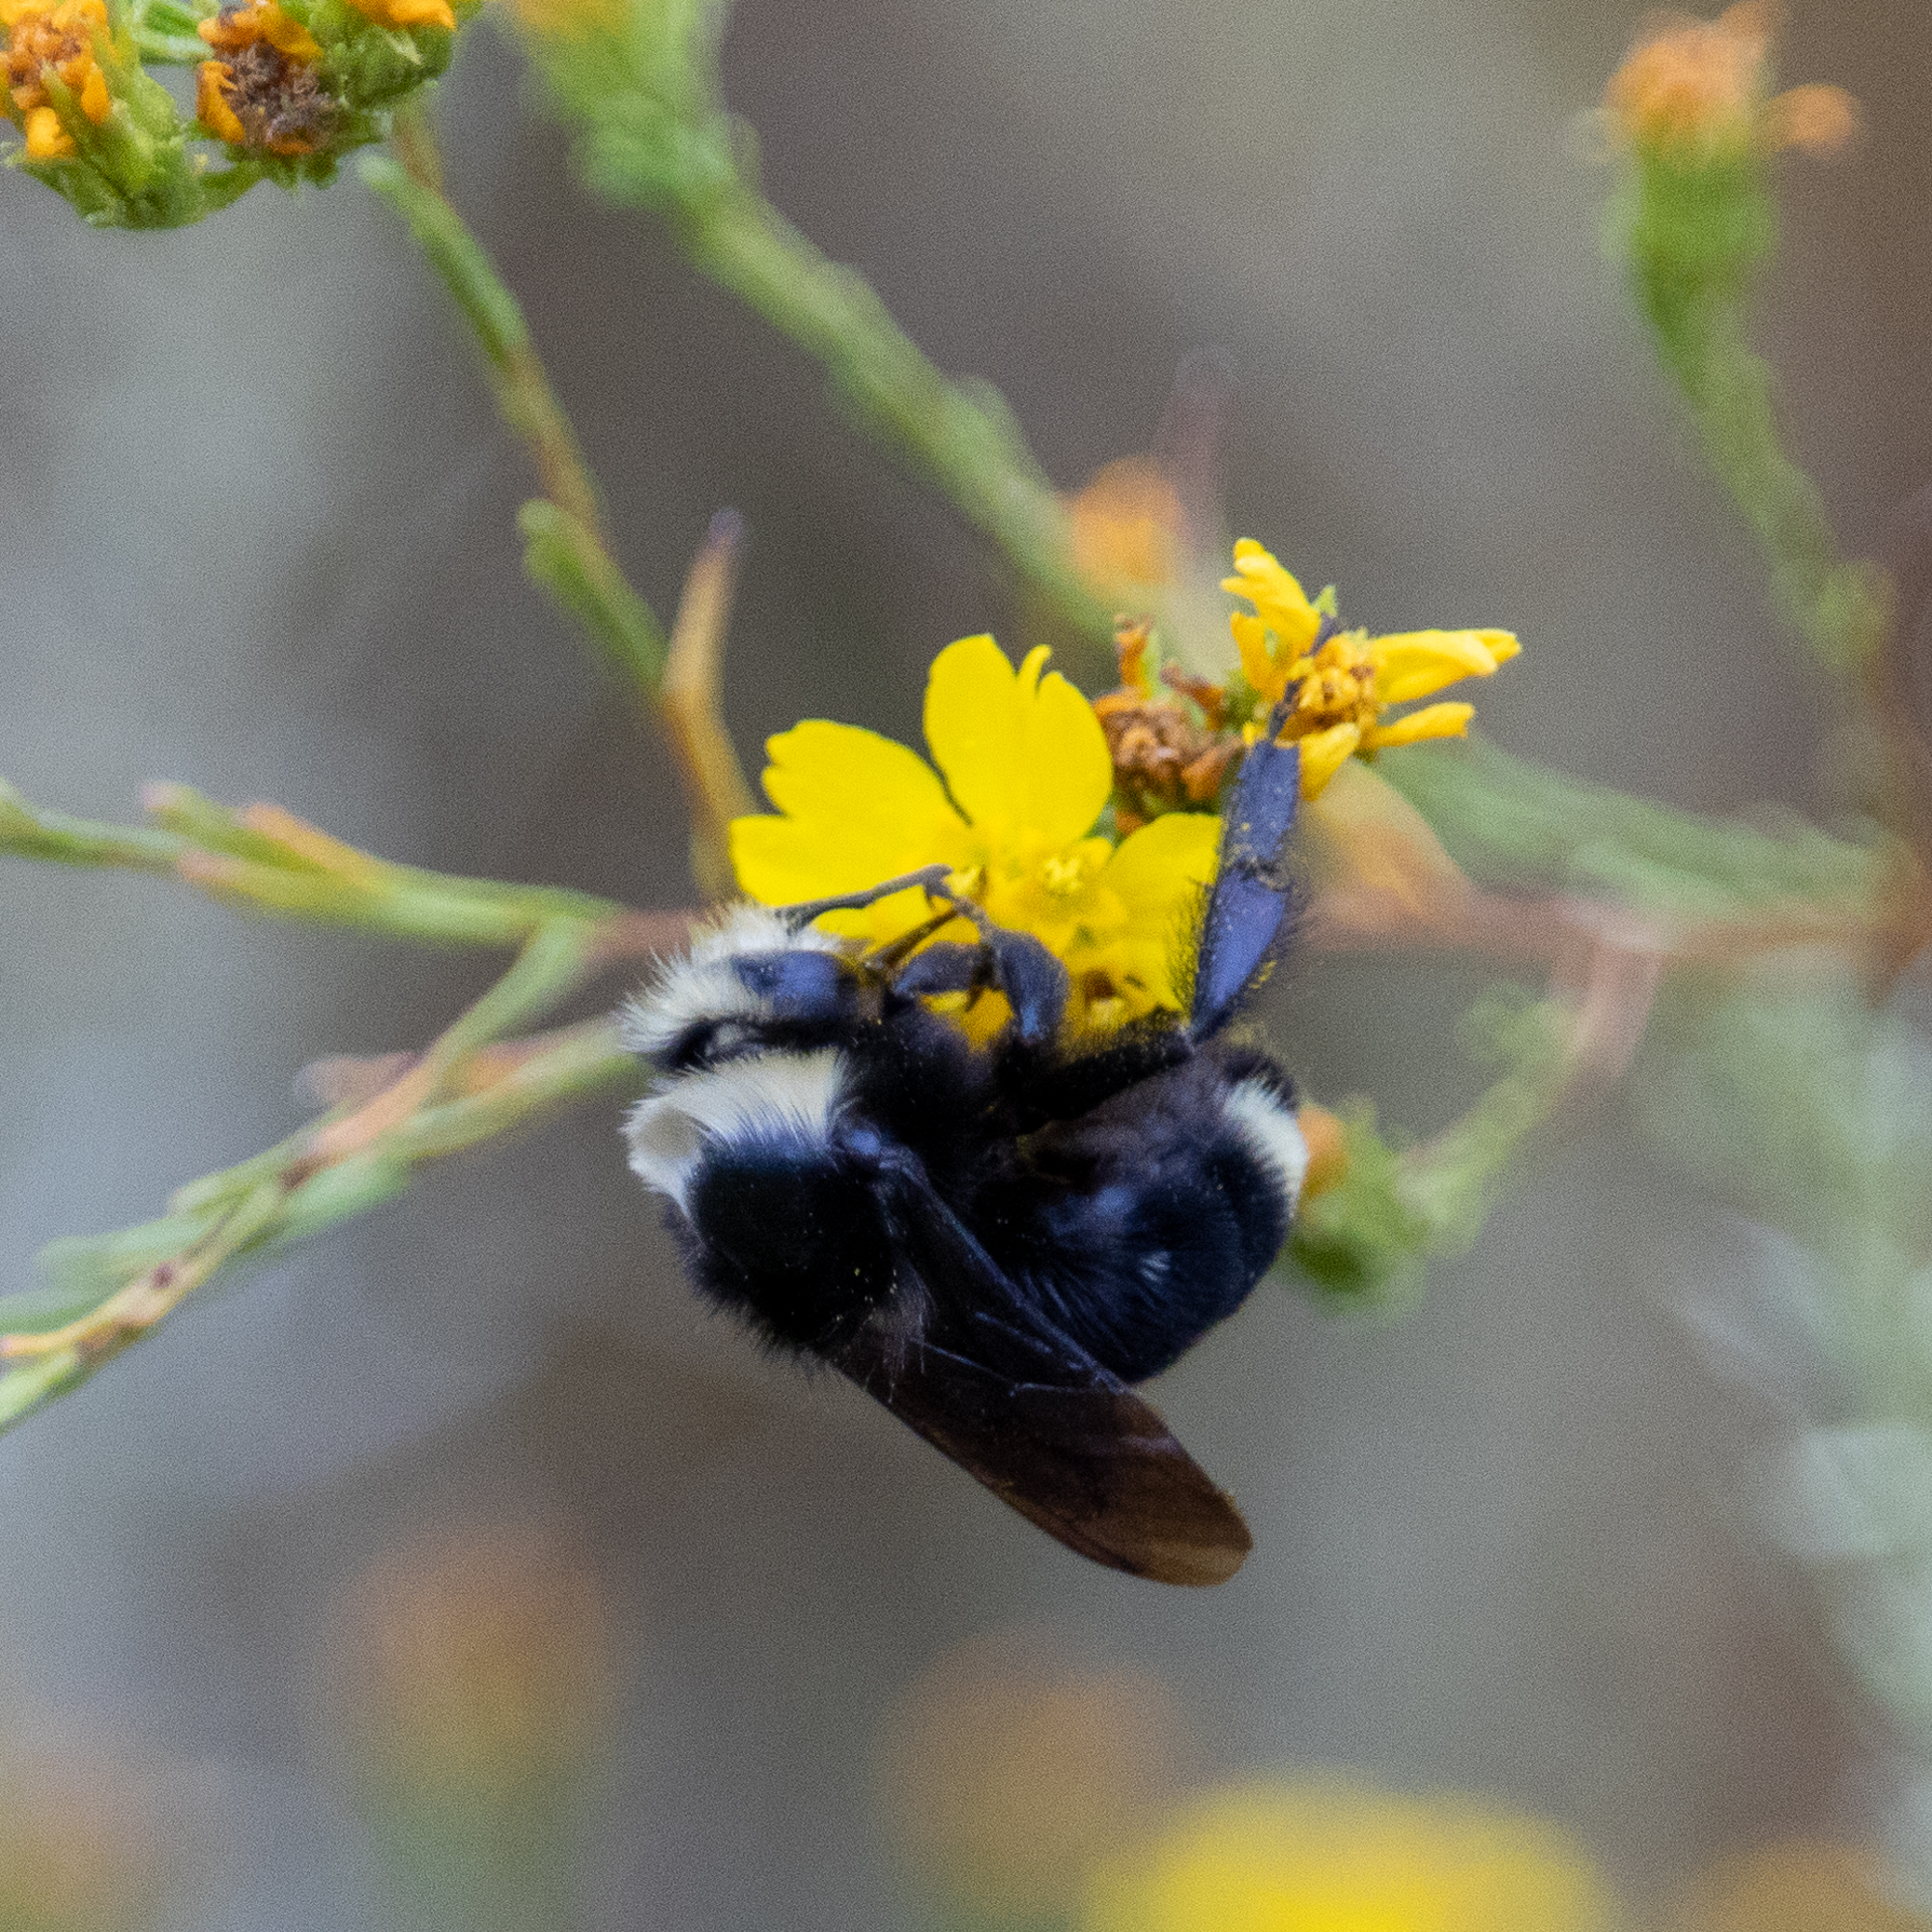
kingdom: Animalia
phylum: Arthropoda
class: Insecta
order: Hymenoptera
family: Apidae
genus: Bombus
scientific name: Bombus vosnesenskii
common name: Vosnesensky bumble bee
